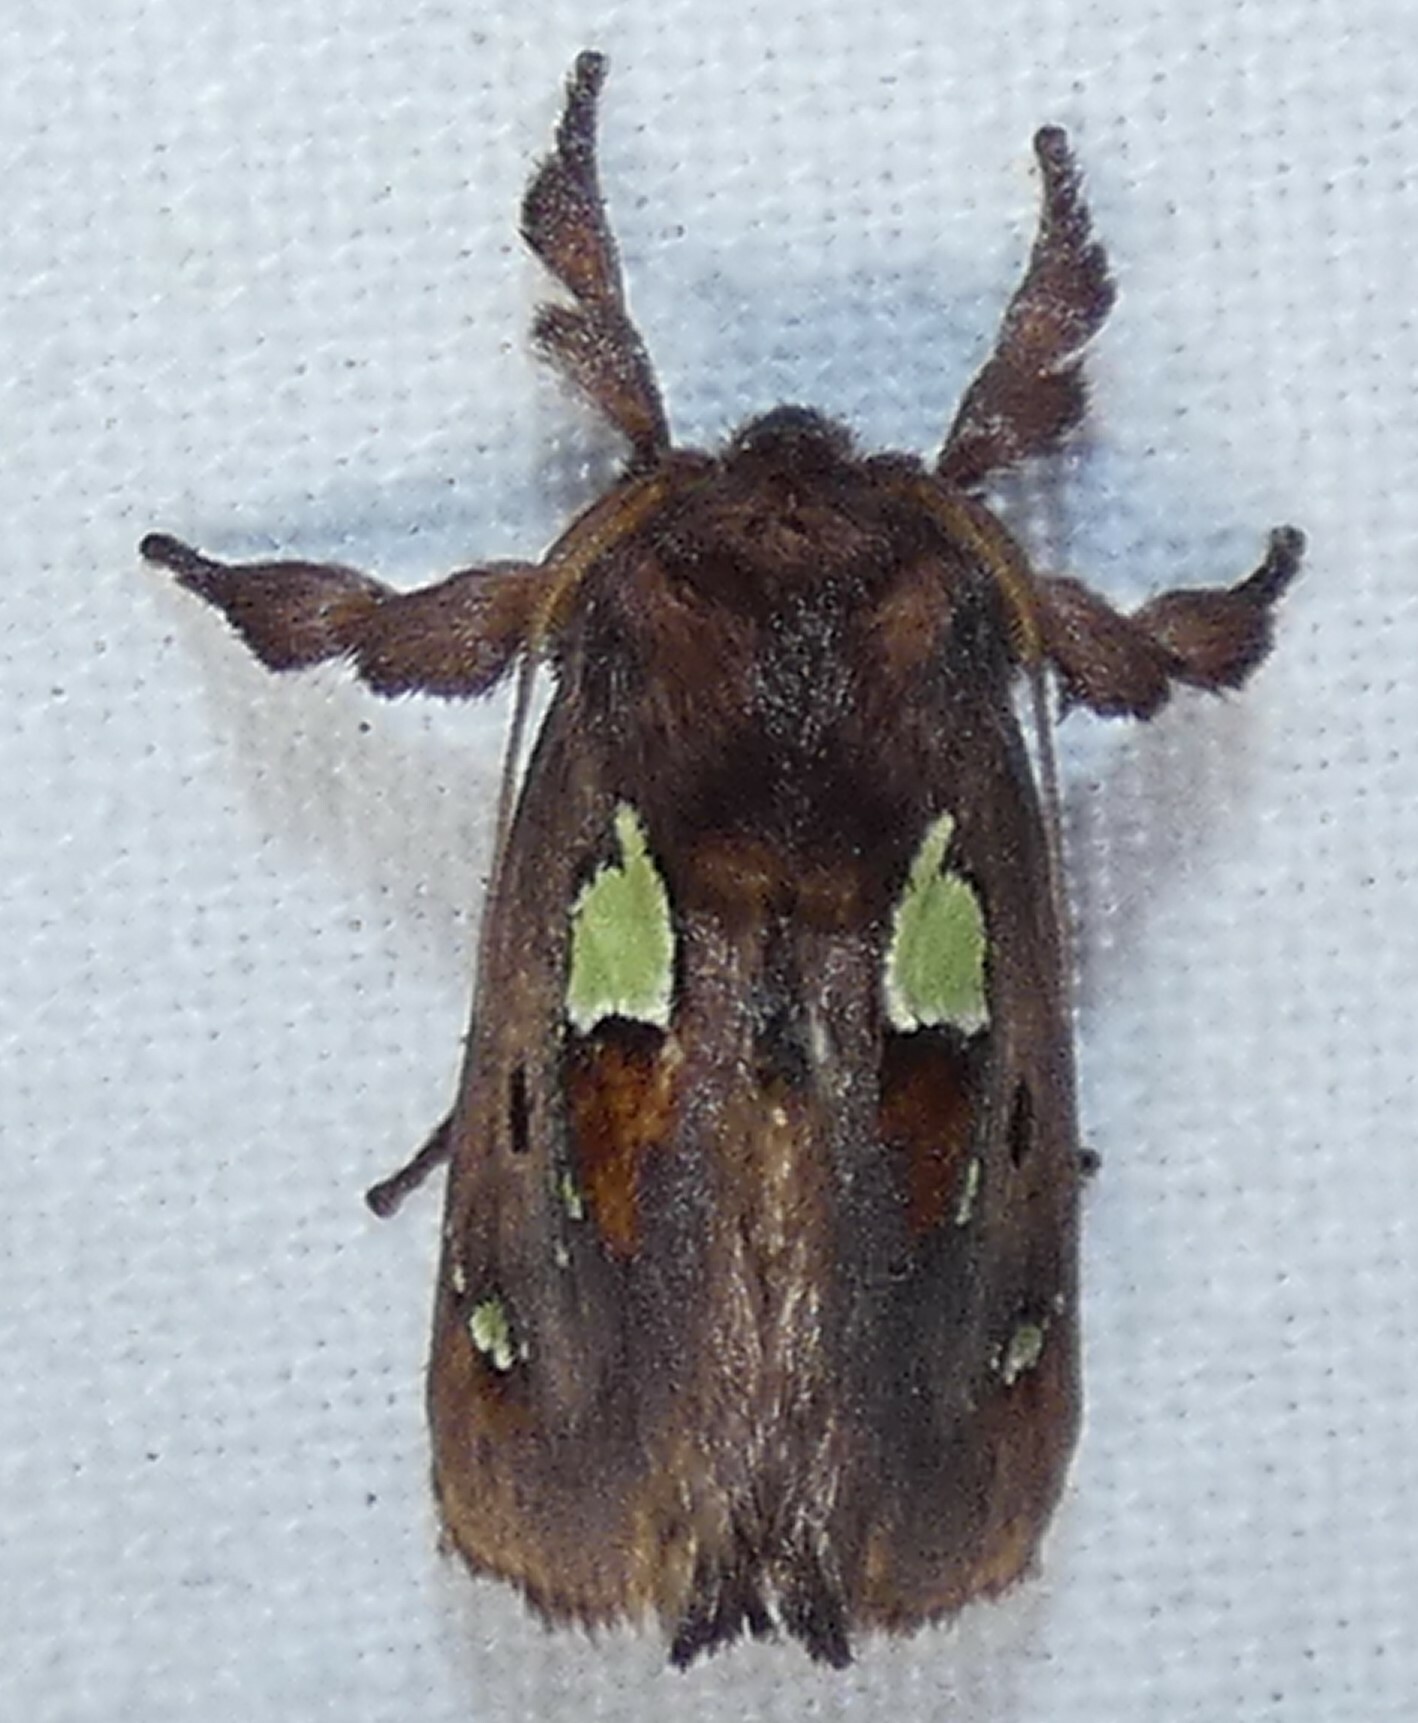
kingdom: Animalia
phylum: Arthropoda
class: Insecta
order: Lepidoptera
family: Limacodidae
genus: Euclea
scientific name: Euclea delphinii
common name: Spiny oak-slug moth
